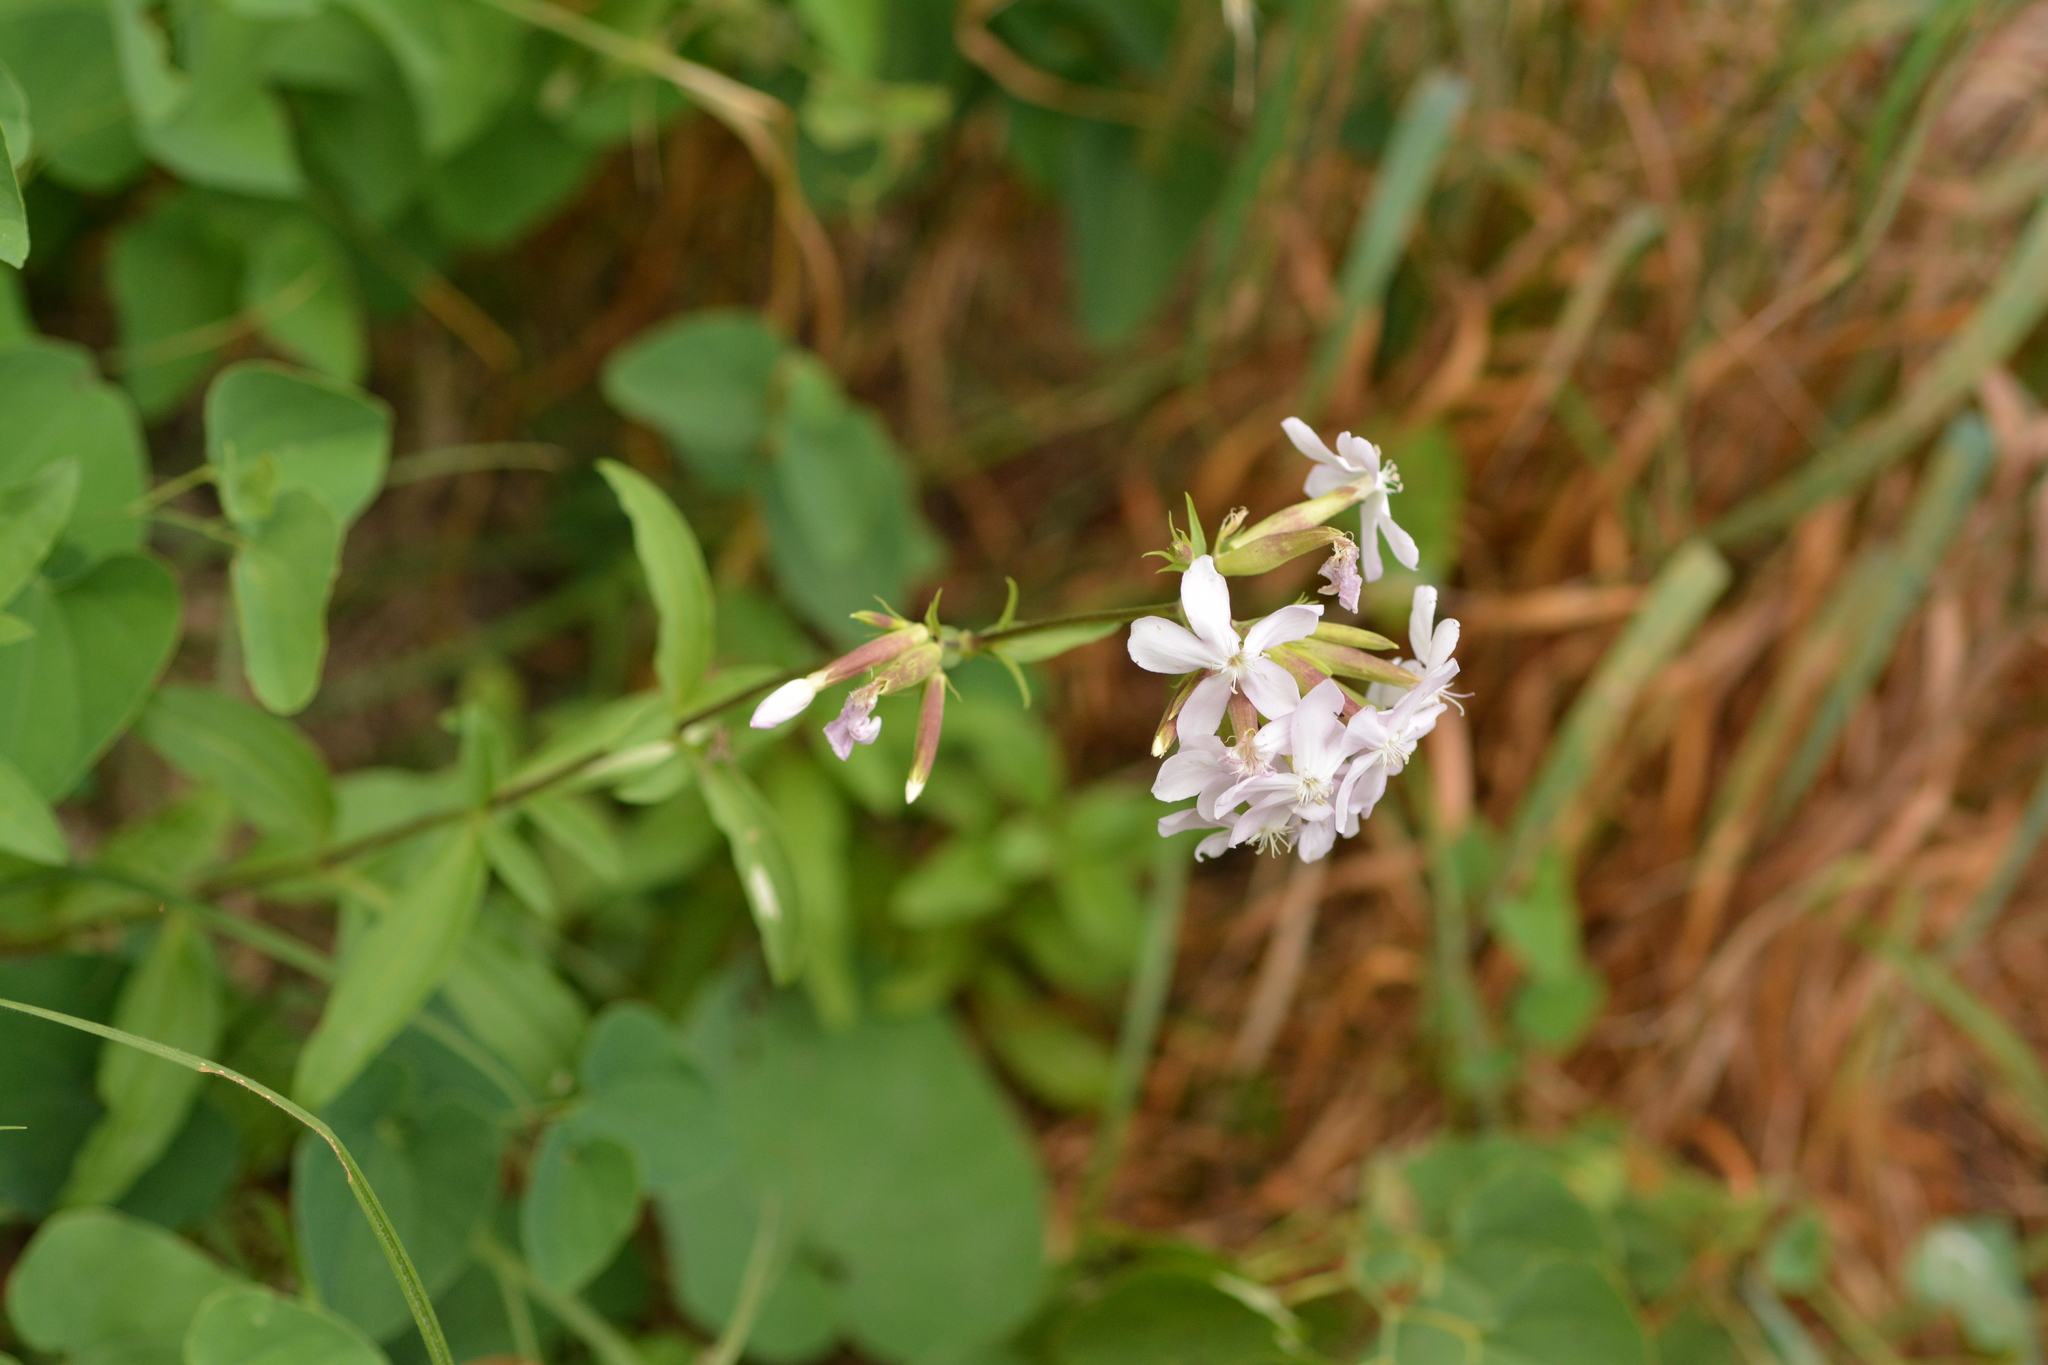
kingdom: Plantae
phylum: Tracheophyta
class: Magnoliopsida
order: Caryophyllales
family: Caryophyllaceae
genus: Saponaria
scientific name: Saponaria officinalis
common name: Soapwort
